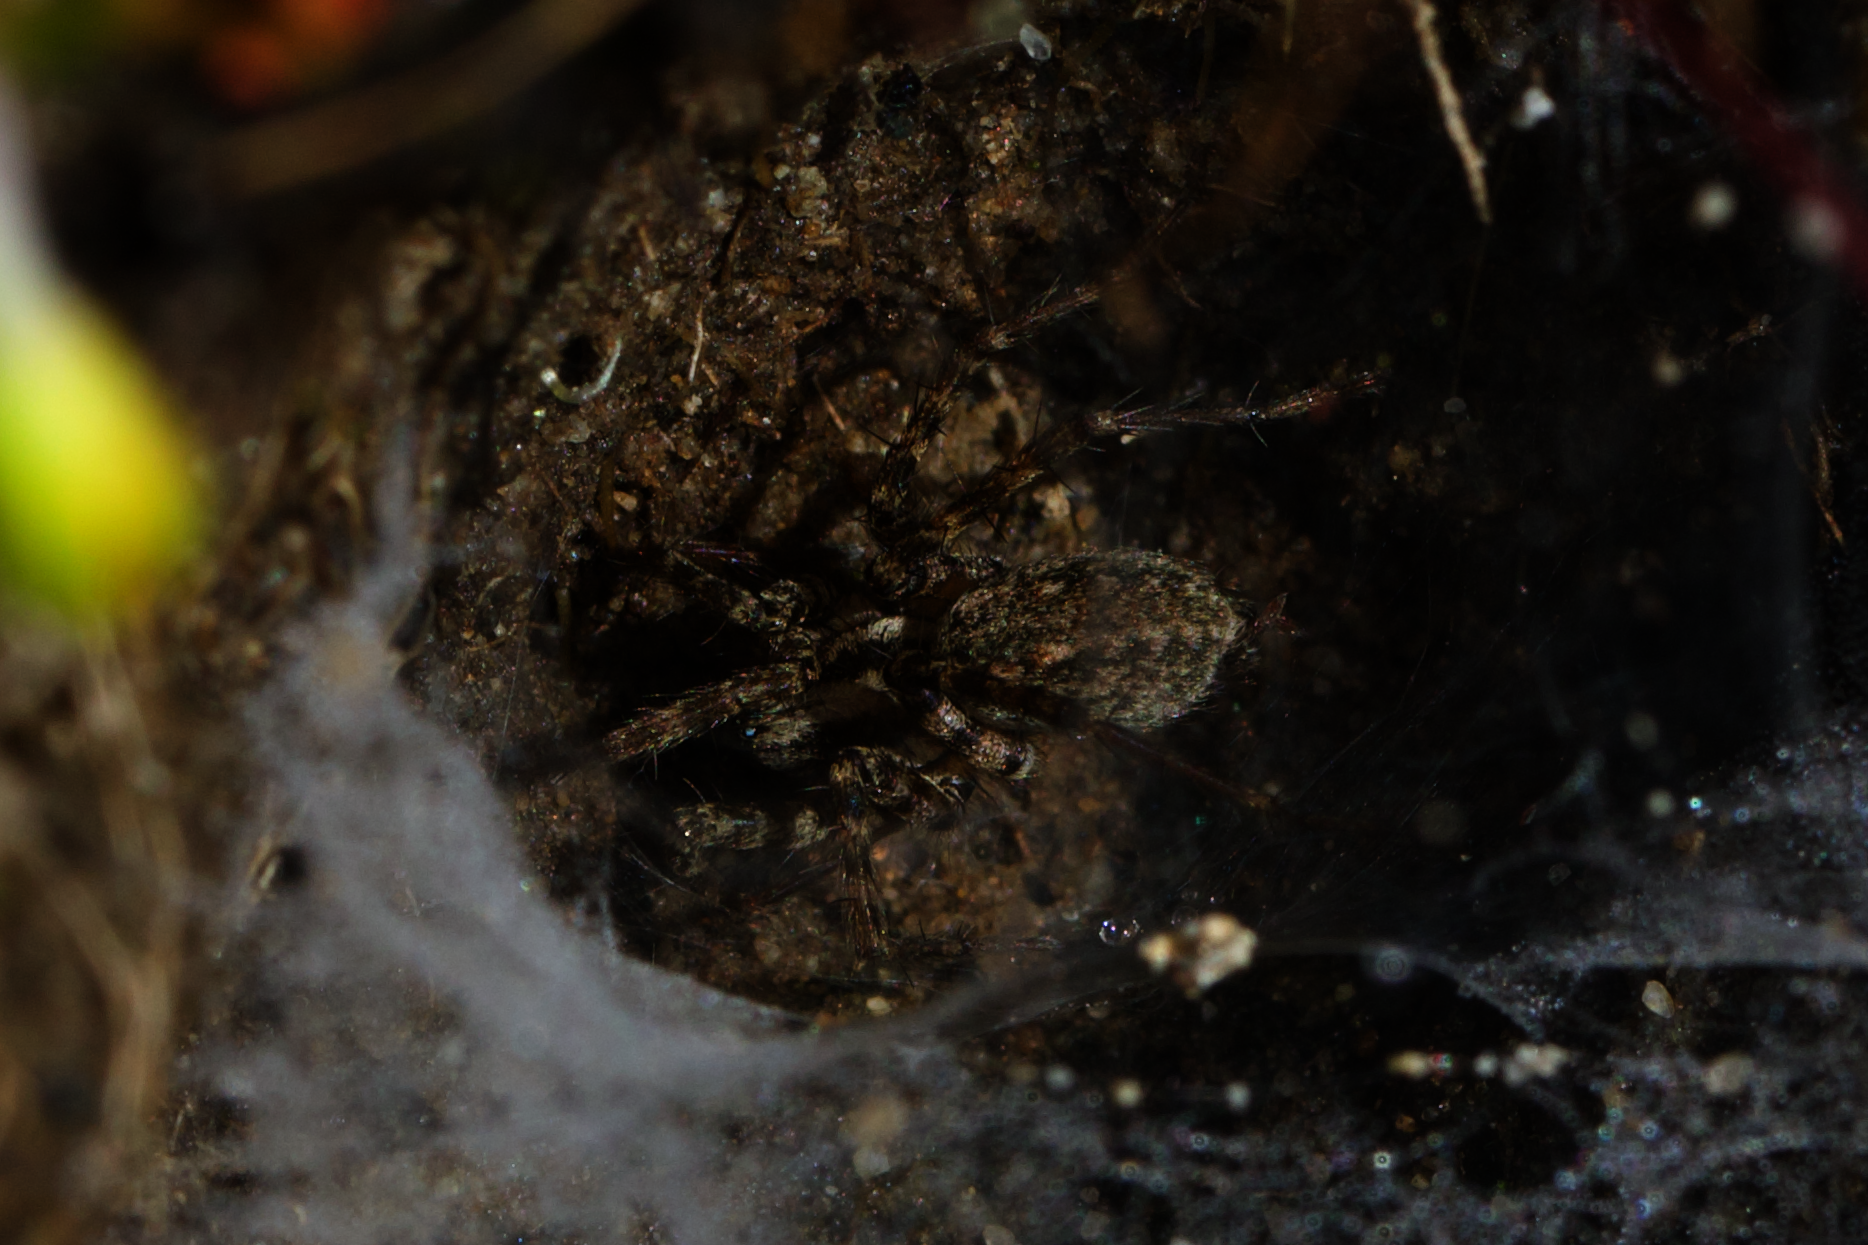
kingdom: Animalia
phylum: Arthropoda
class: Arachnida
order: Araneae
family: Agelenidae
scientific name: Agelenidae
